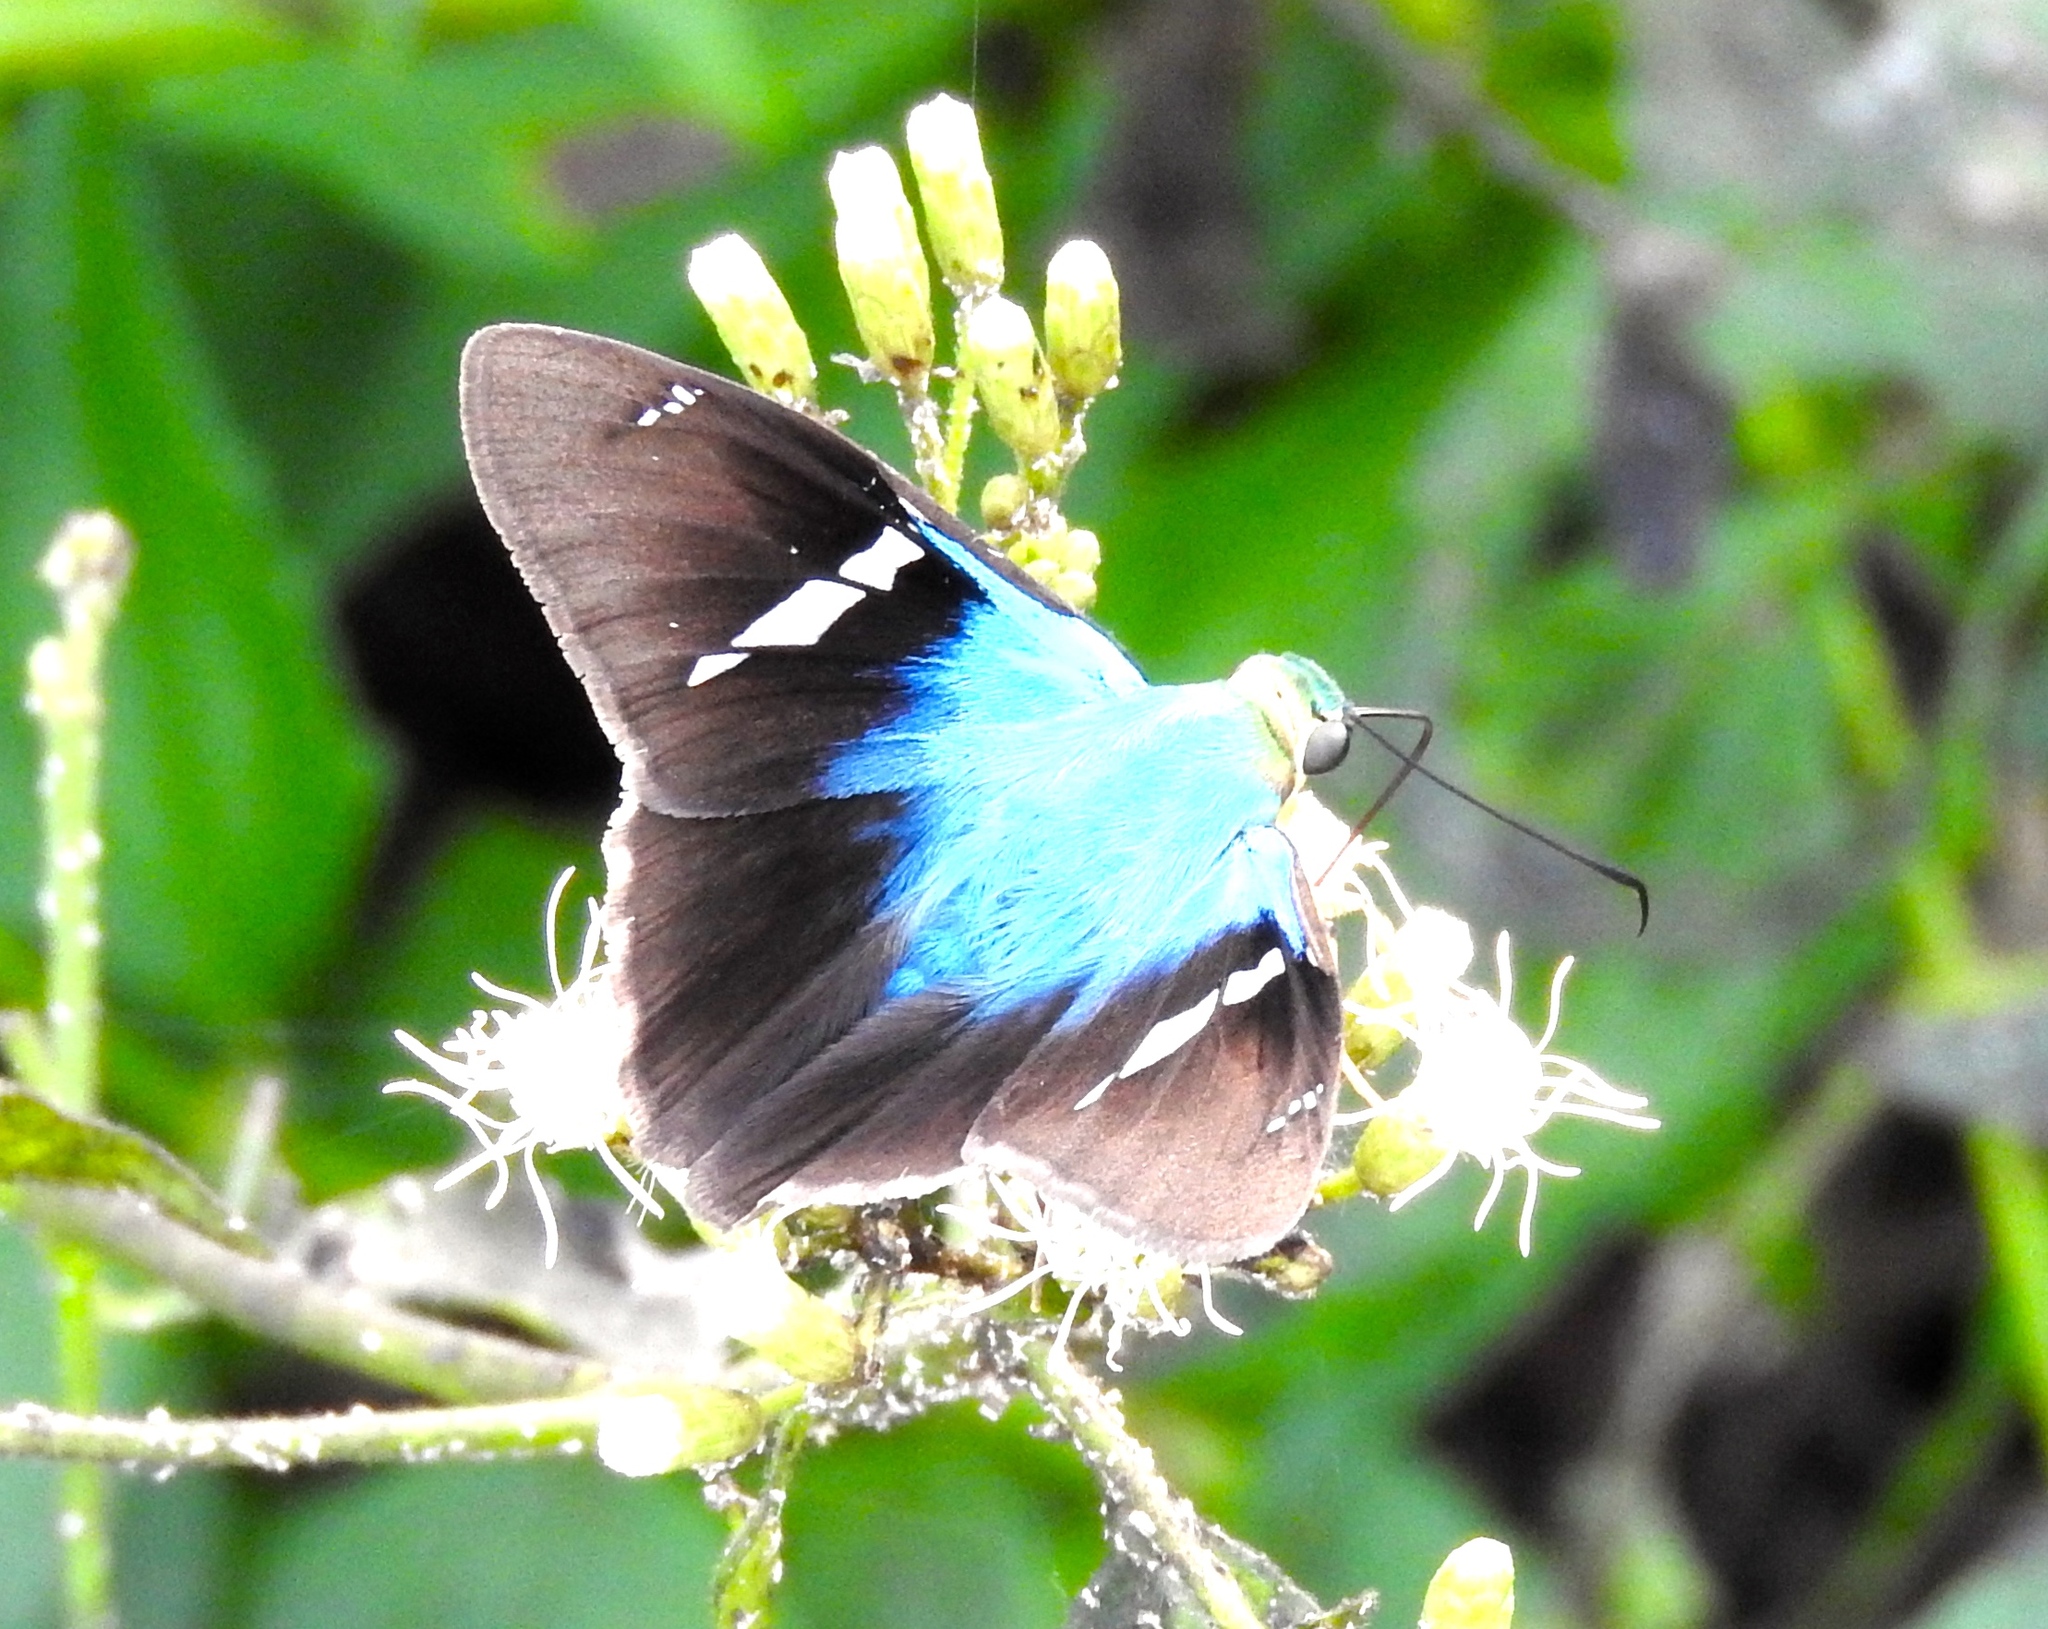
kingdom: Animalia
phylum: Arthropoda
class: Insecta
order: Lepidoptera
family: Hesperiidae
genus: Astraptes
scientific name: Astraptes fulgerator
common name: Two-barred flasher
